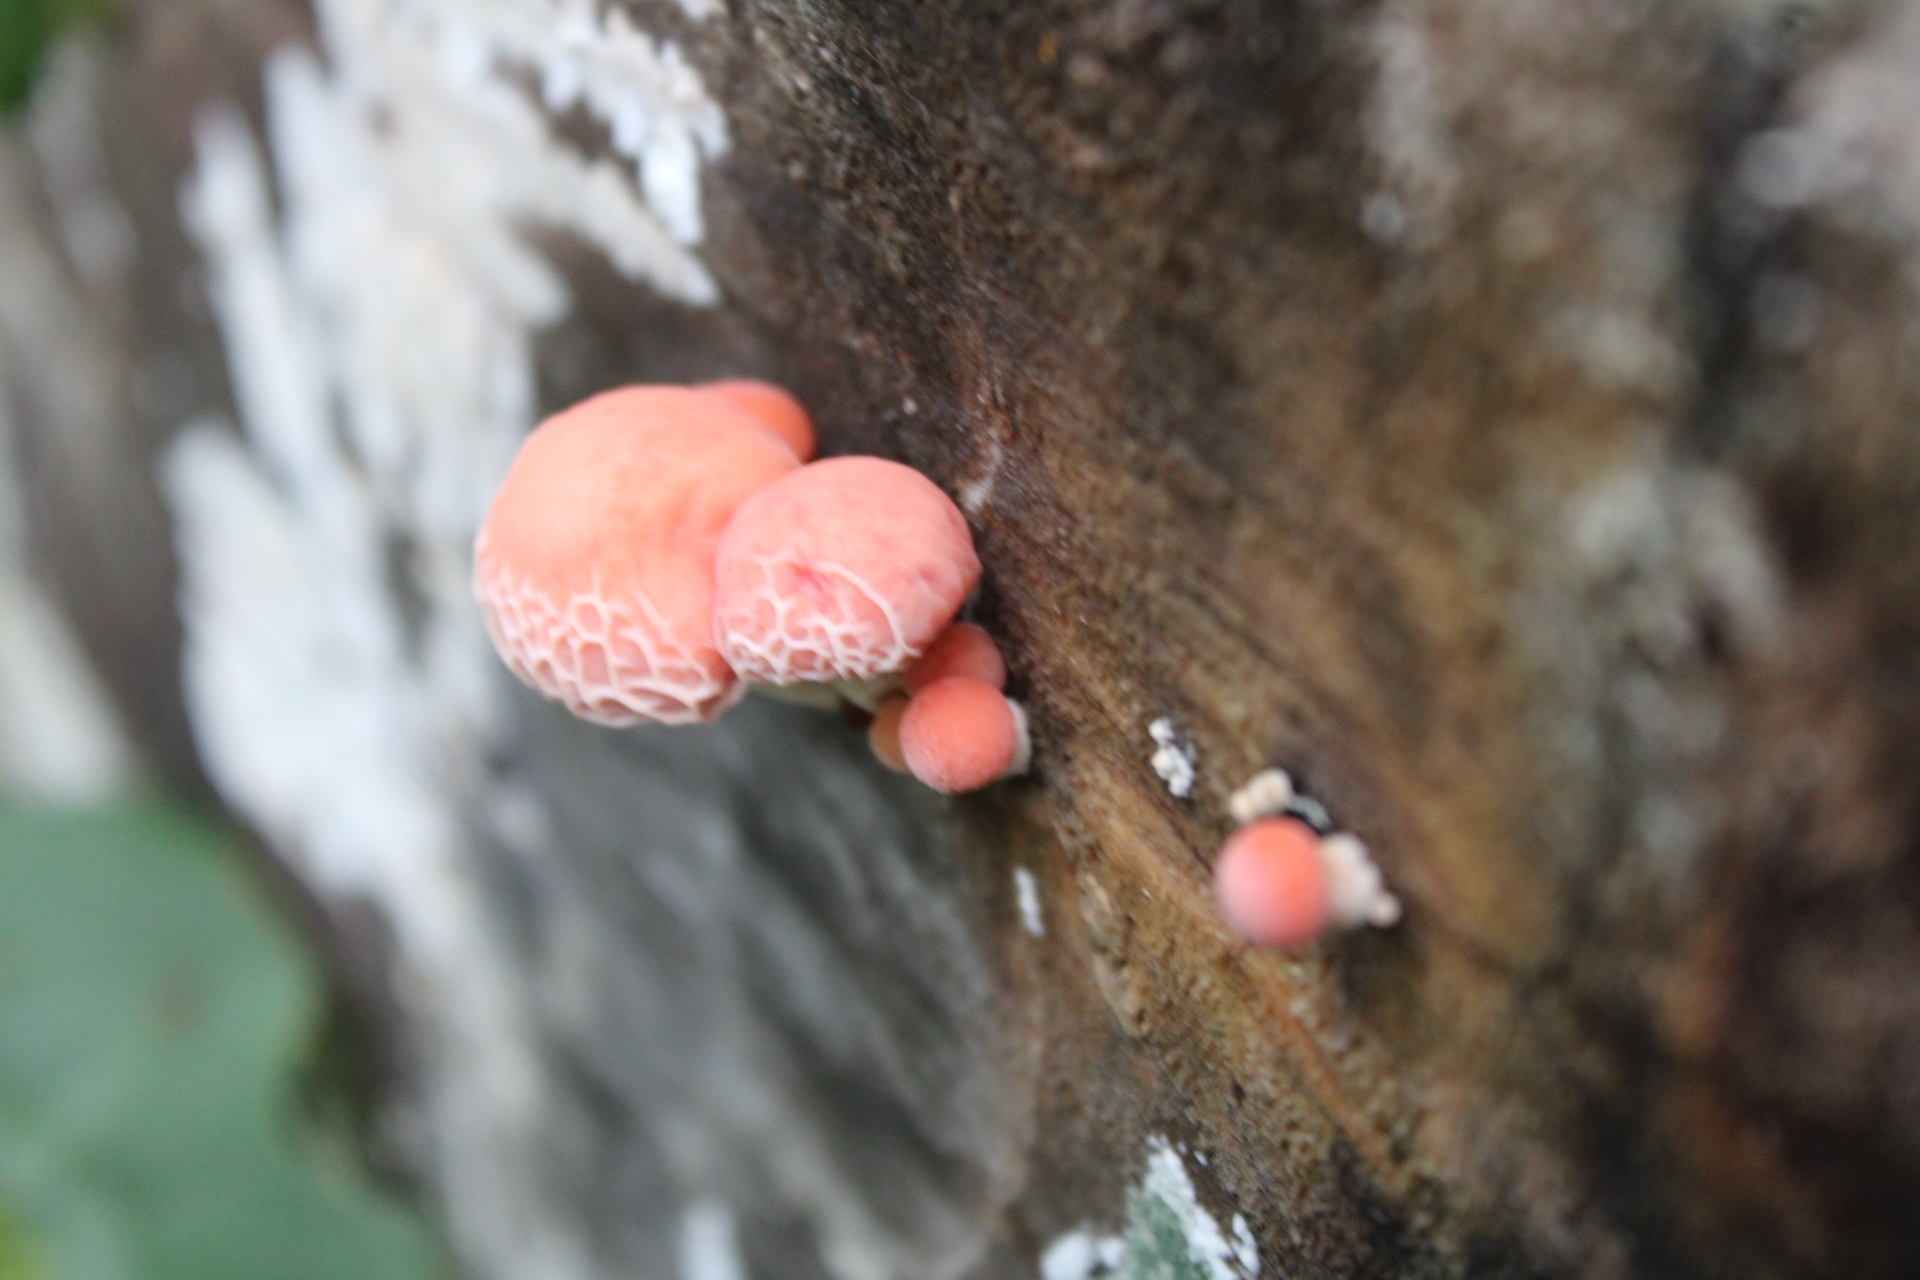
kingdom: Fungi
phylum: Basidiomycota
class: Agaricomycetes
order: Agaricales
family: Physalacriaceae
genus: Rhodotus
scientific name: Rhodotus palmatus
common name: Wrinkled peach
